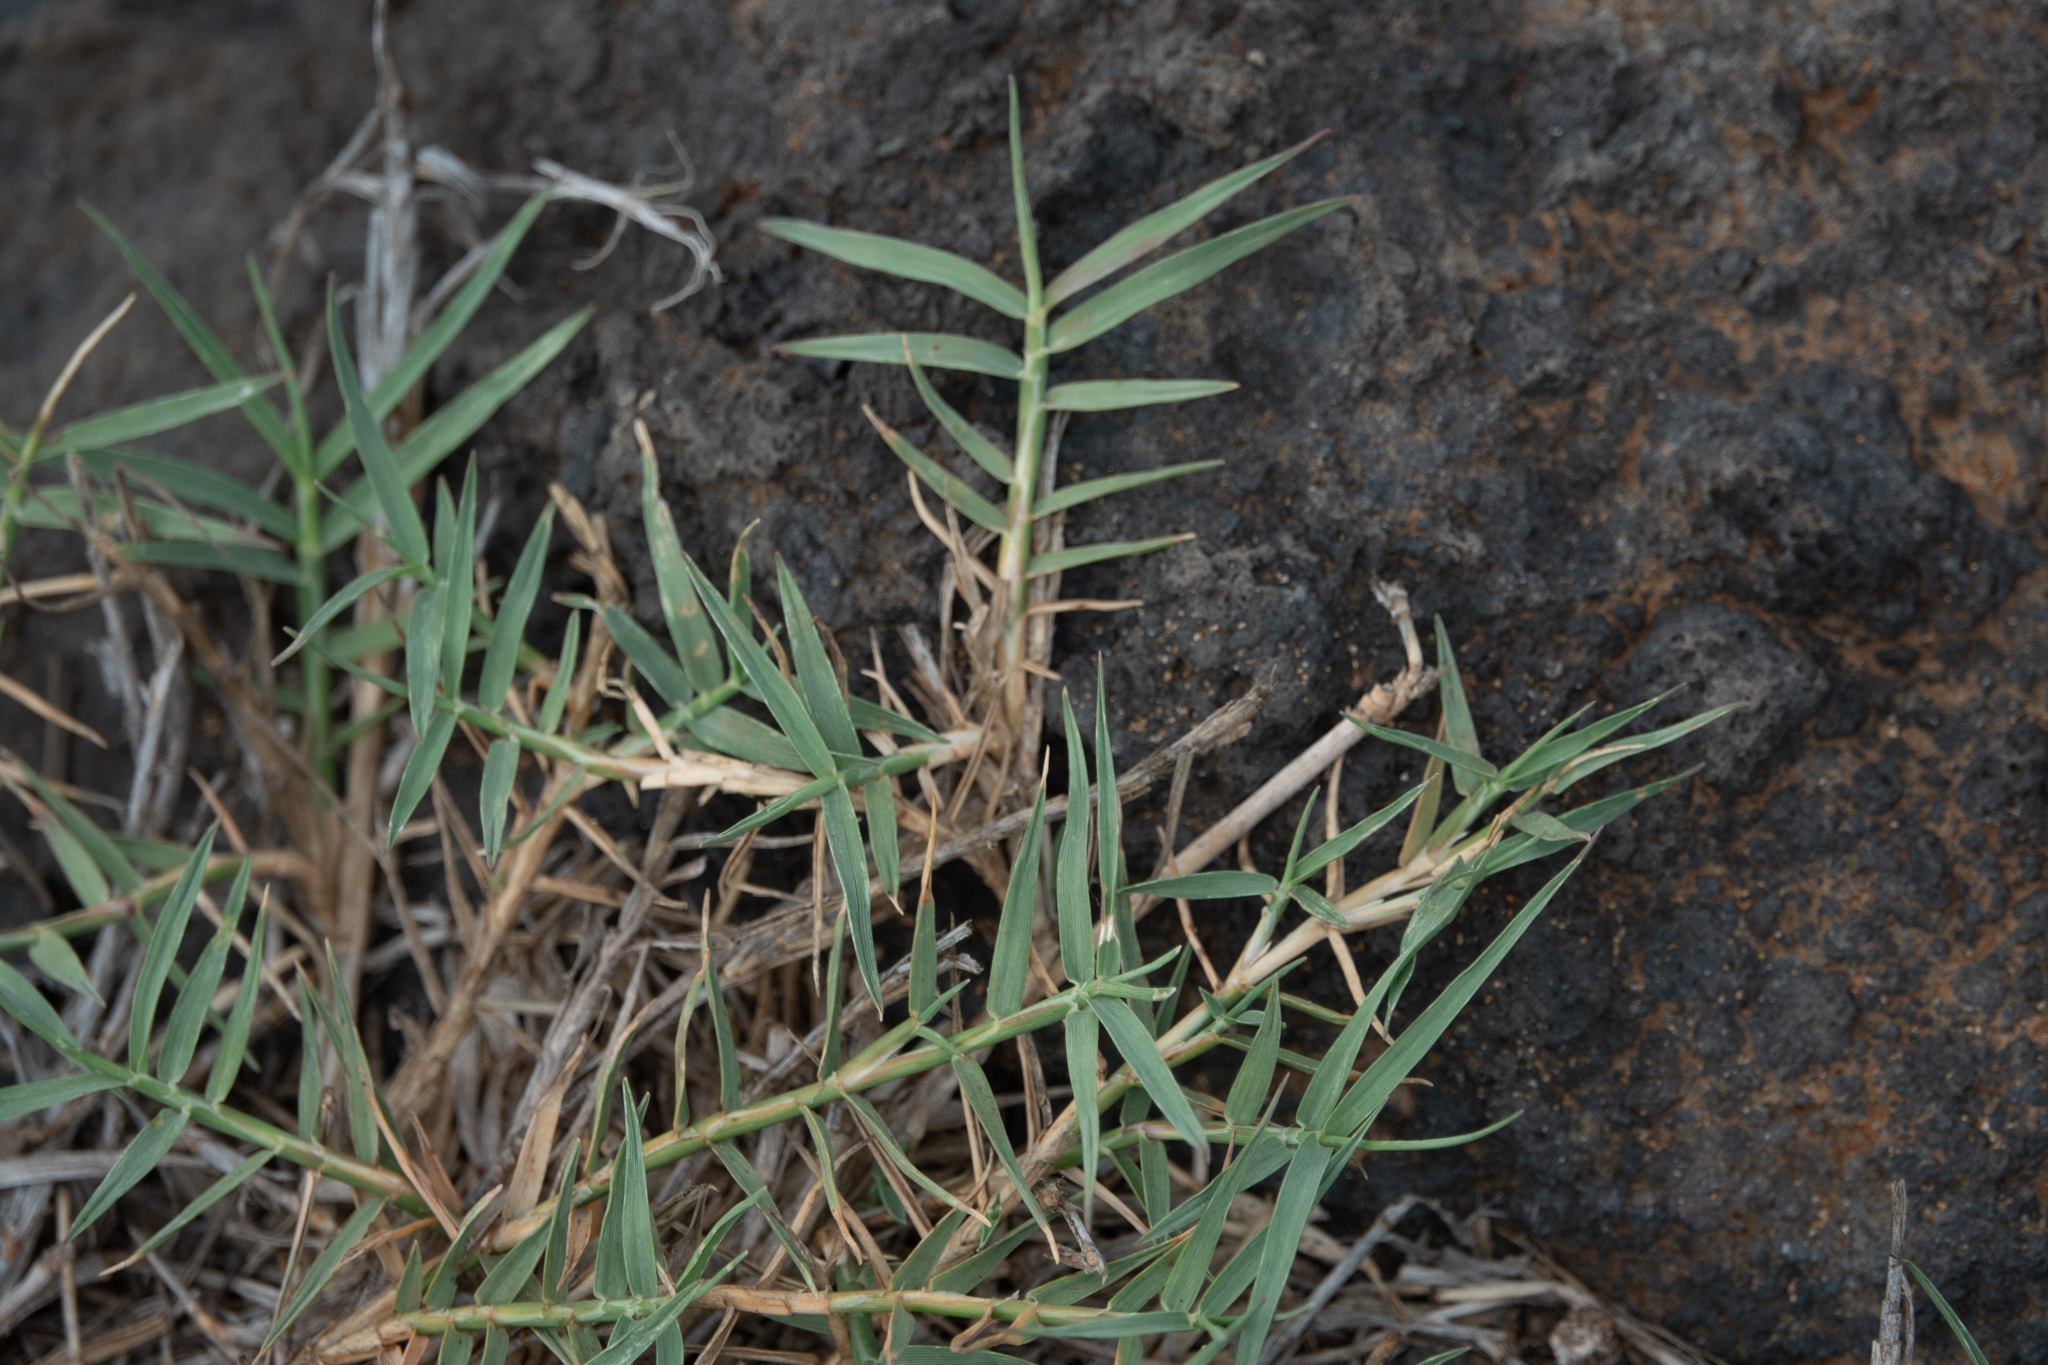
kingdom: Plantae
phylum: Tracheophyta
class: Liliopsida
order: Poales
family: Poaceae
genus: Cynodon
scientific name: Cynodon dactylon
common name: Bermuda grass
